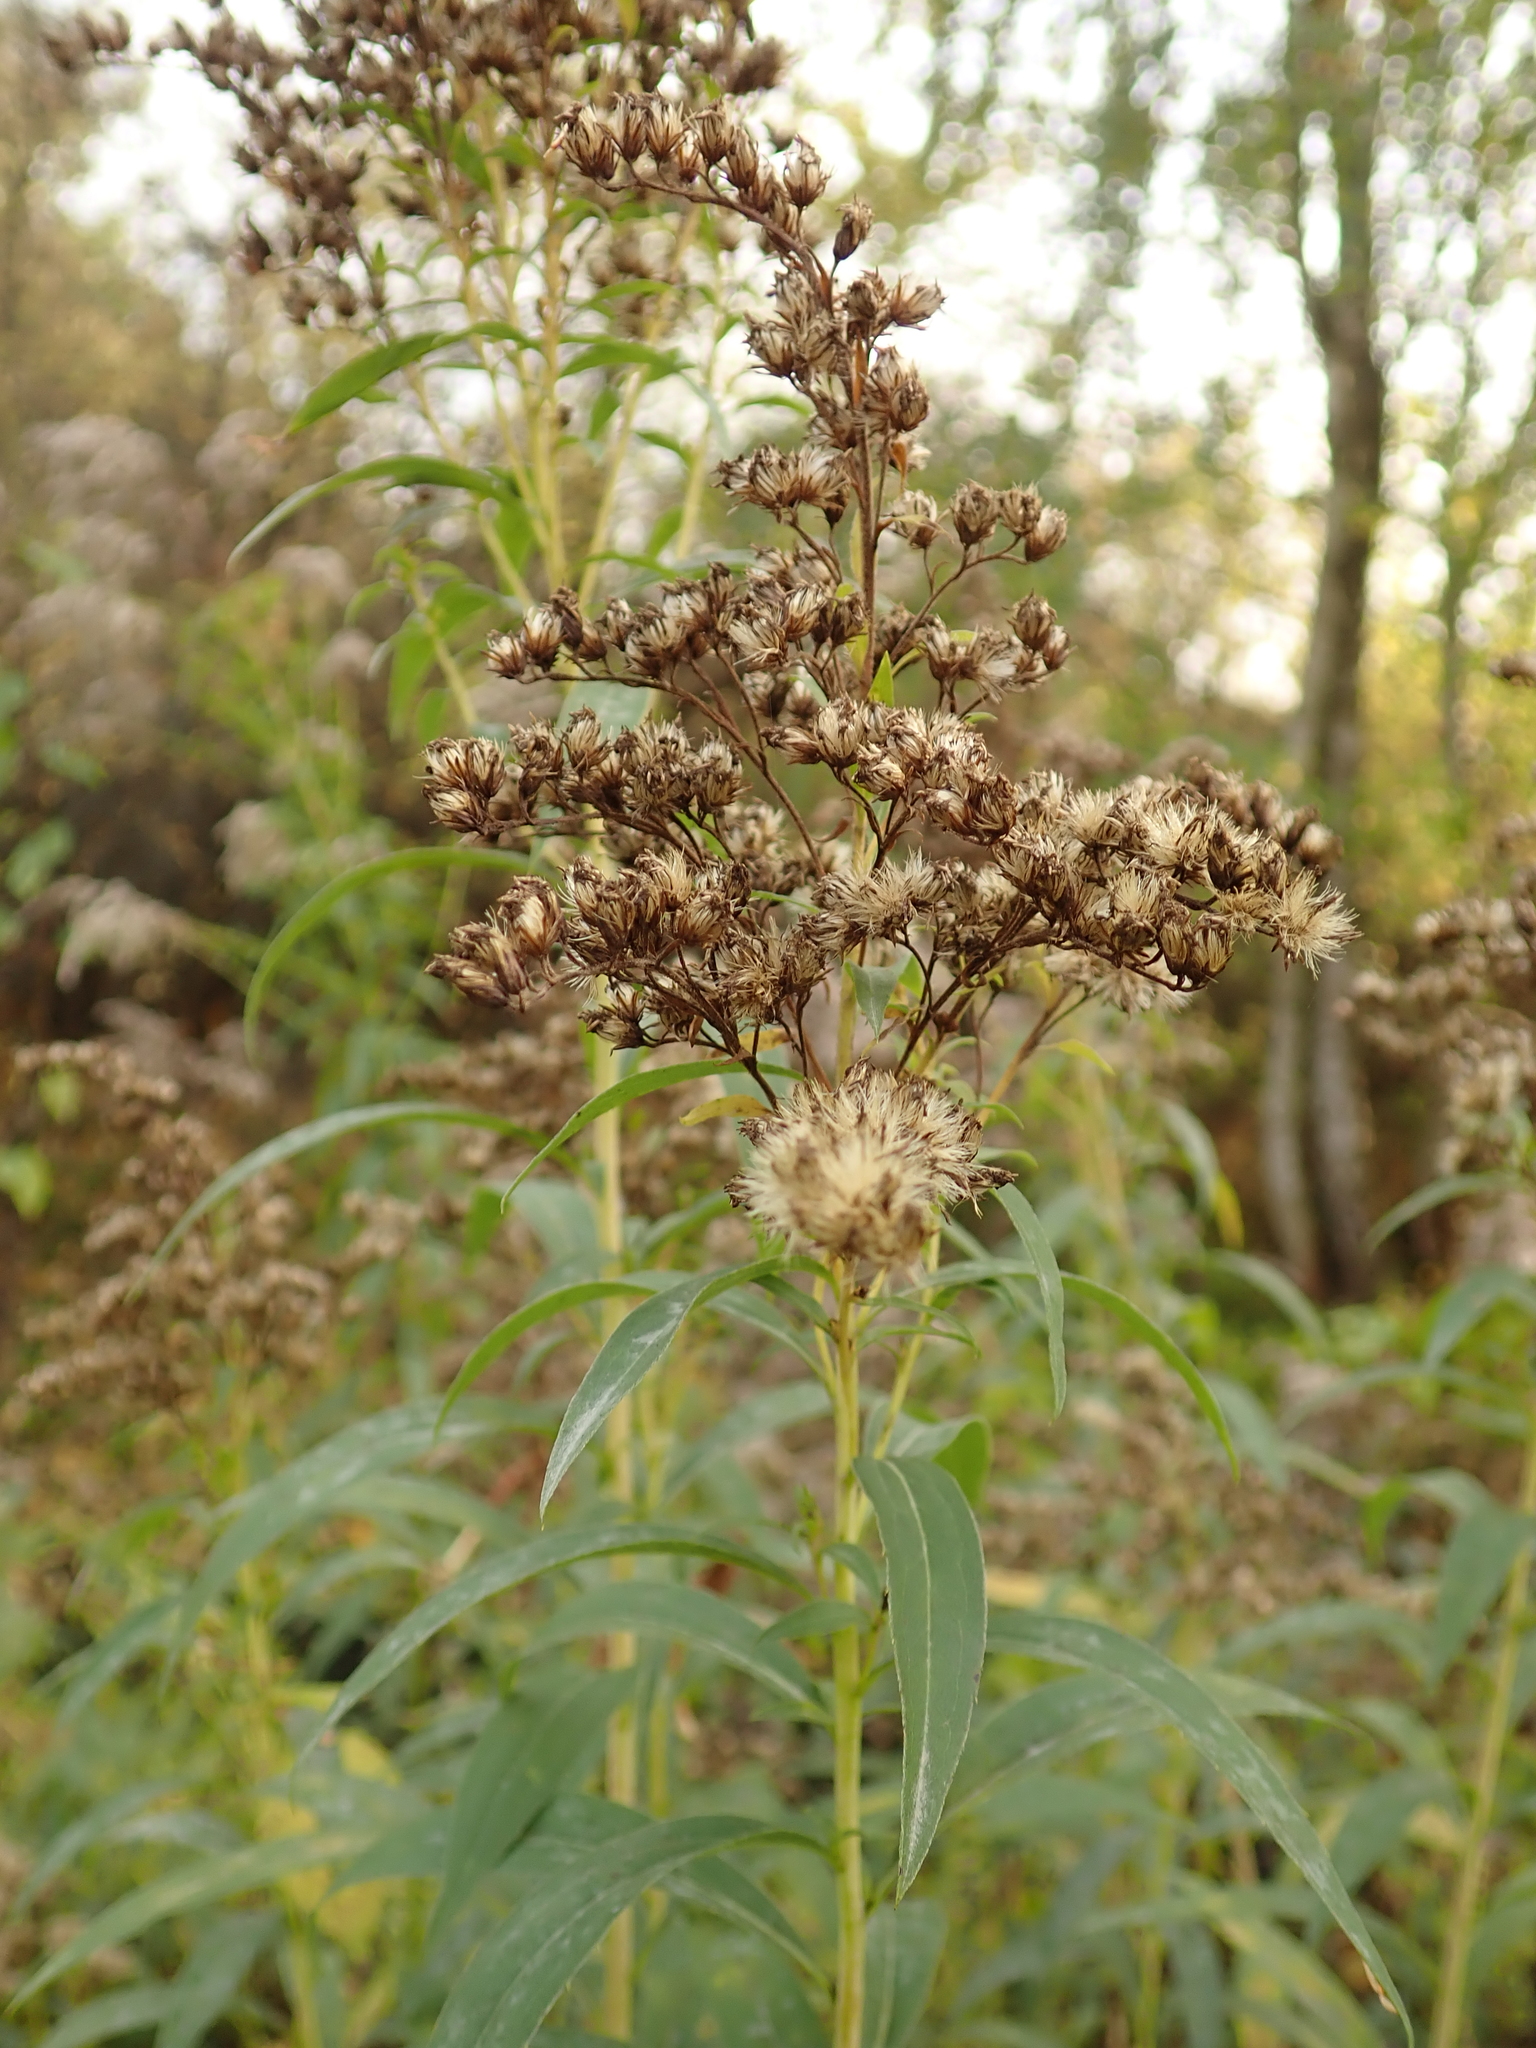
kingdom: Plantae
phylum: Tracheophyta
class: Magnoliopsida
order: Asterales
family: Asteraceae
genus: Solidago
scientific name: Solidago gigantea
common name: Giant goldenrod
